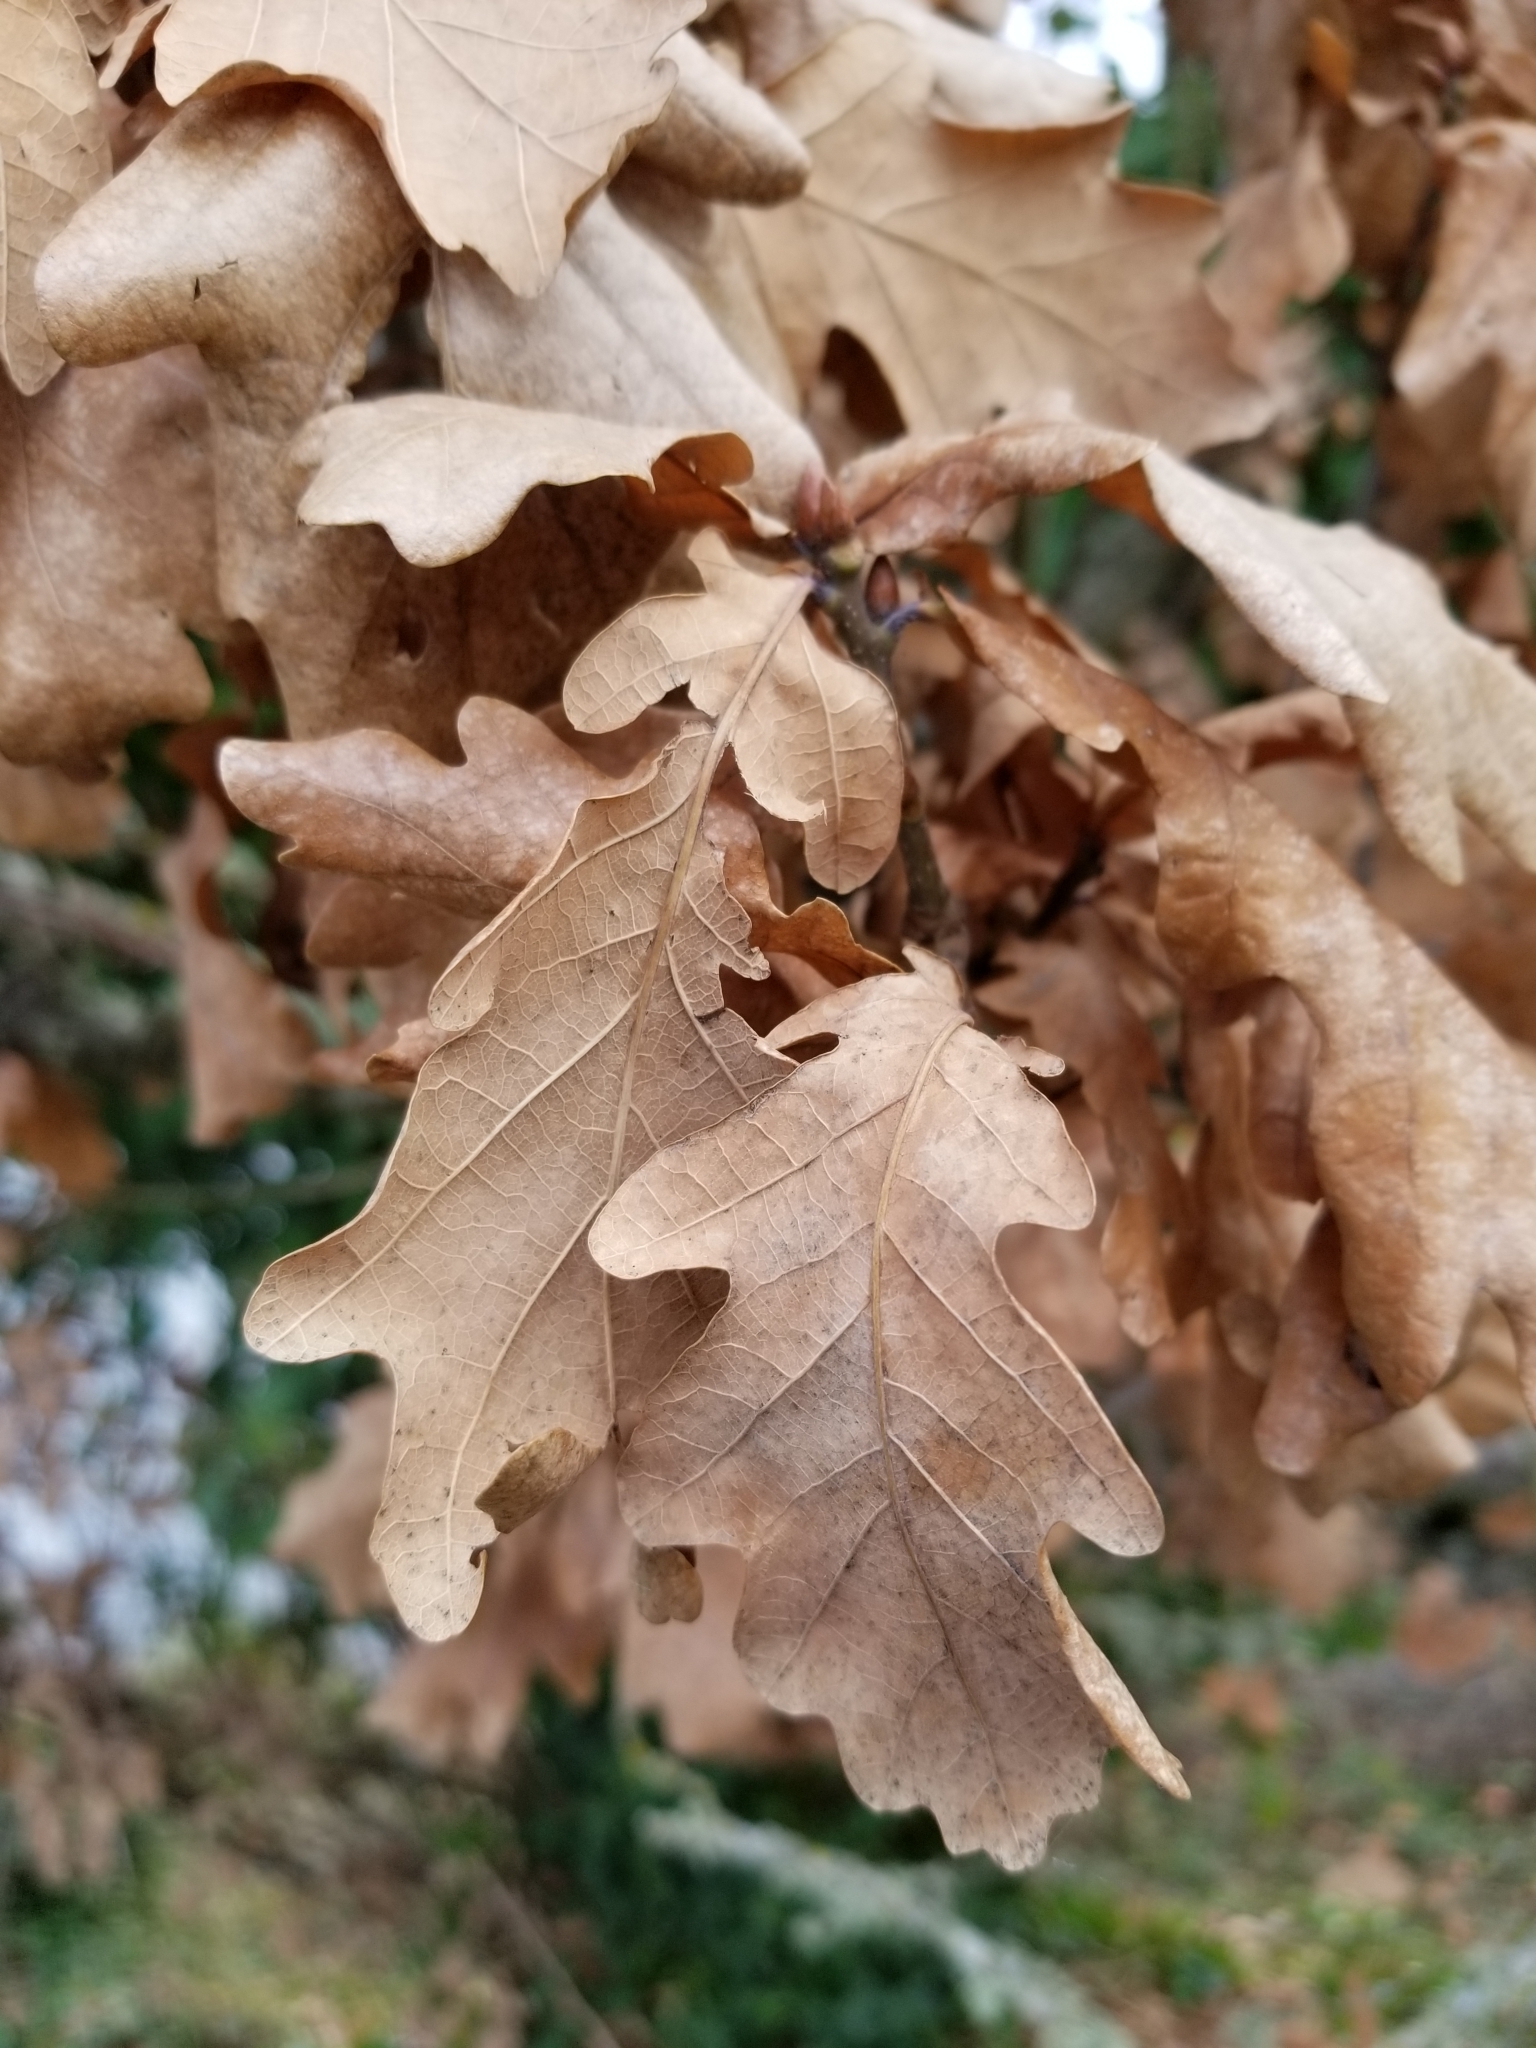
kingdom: Plantae
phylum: Tracheophyta
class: Magnoliopsida
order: Fagales
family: Fagaceae
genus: Quercus
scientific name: Quercus garryana
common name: Garry oak
